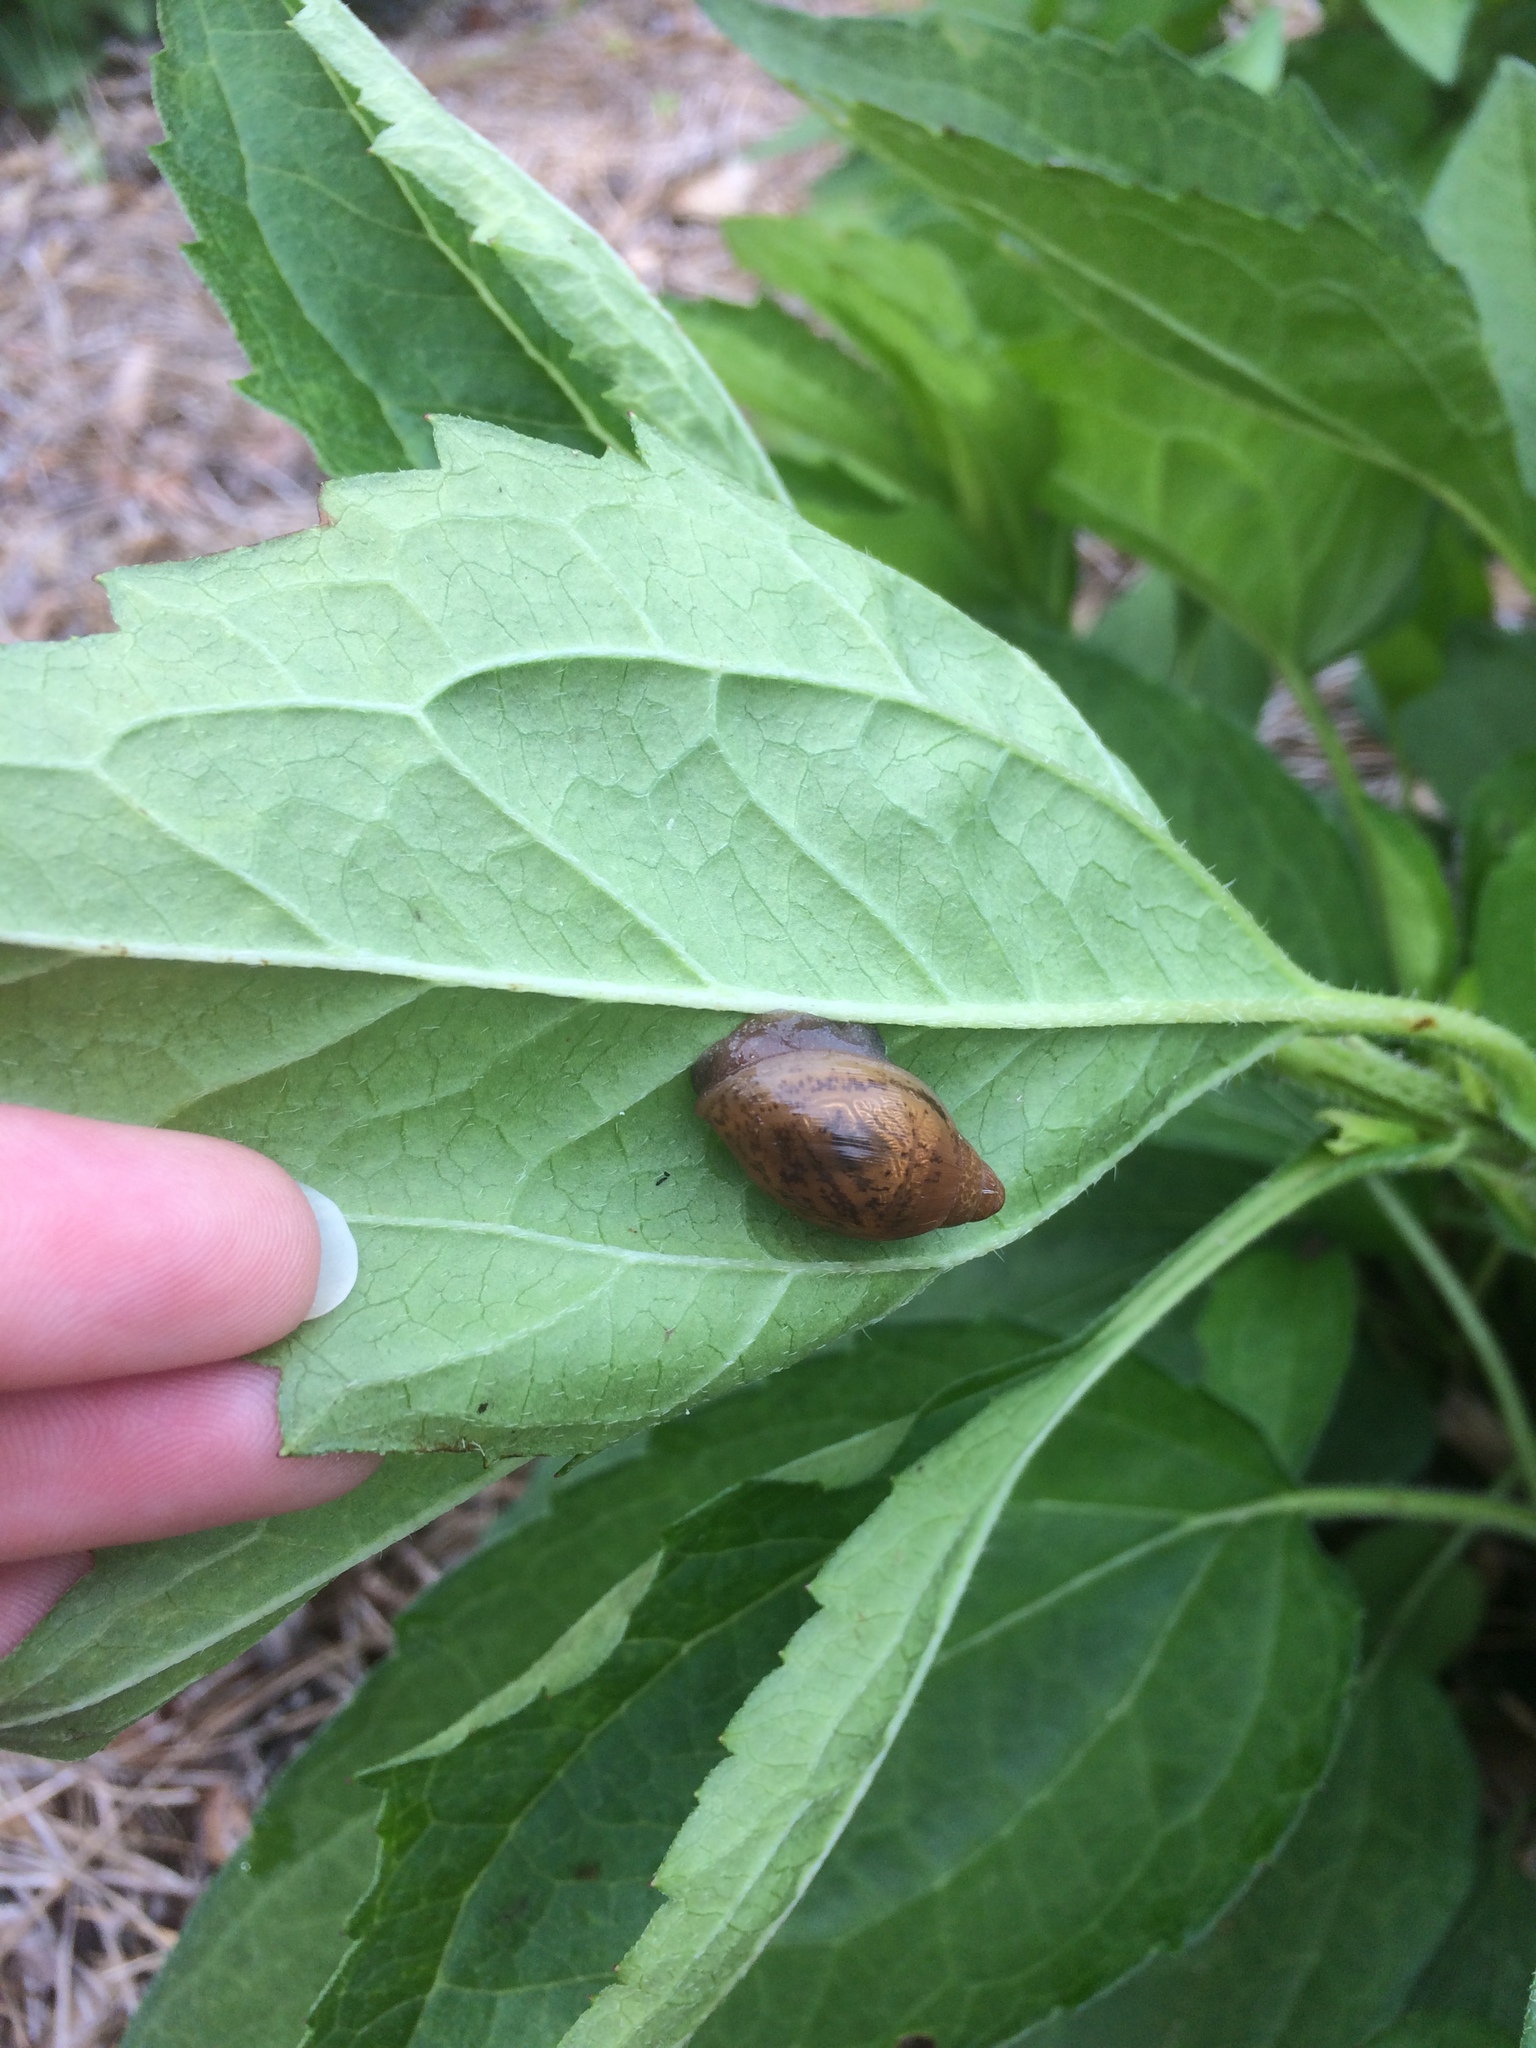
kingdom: Animalia
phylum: Mollusca
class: Gastropoda
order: Stylommatophora
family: Spiraxidae
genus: Euglandina
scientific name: Euglandina rosea
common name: Rosy wolfsnail
